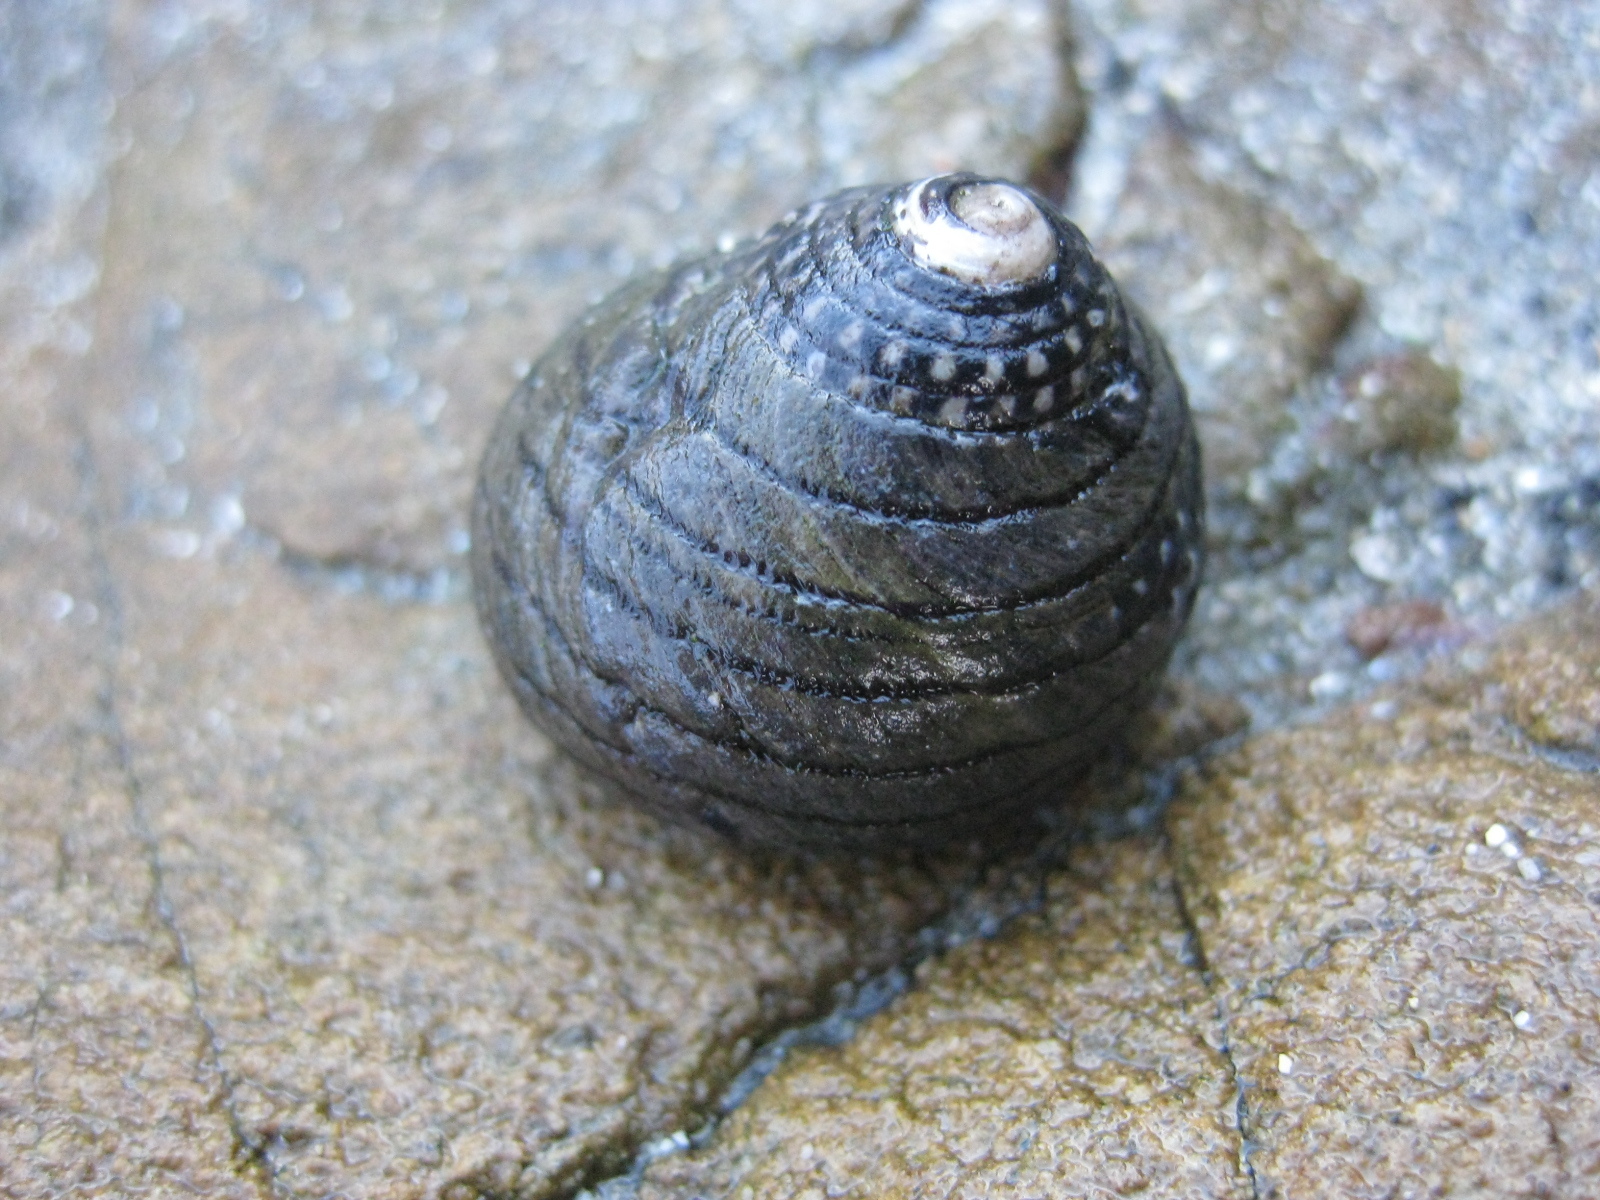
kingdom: Animalia
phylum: Mollusca
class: Gastropoda
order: Trochida
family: Trochidae
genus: Diloma
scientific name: Diloma aethiops
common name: Scorched monodont
